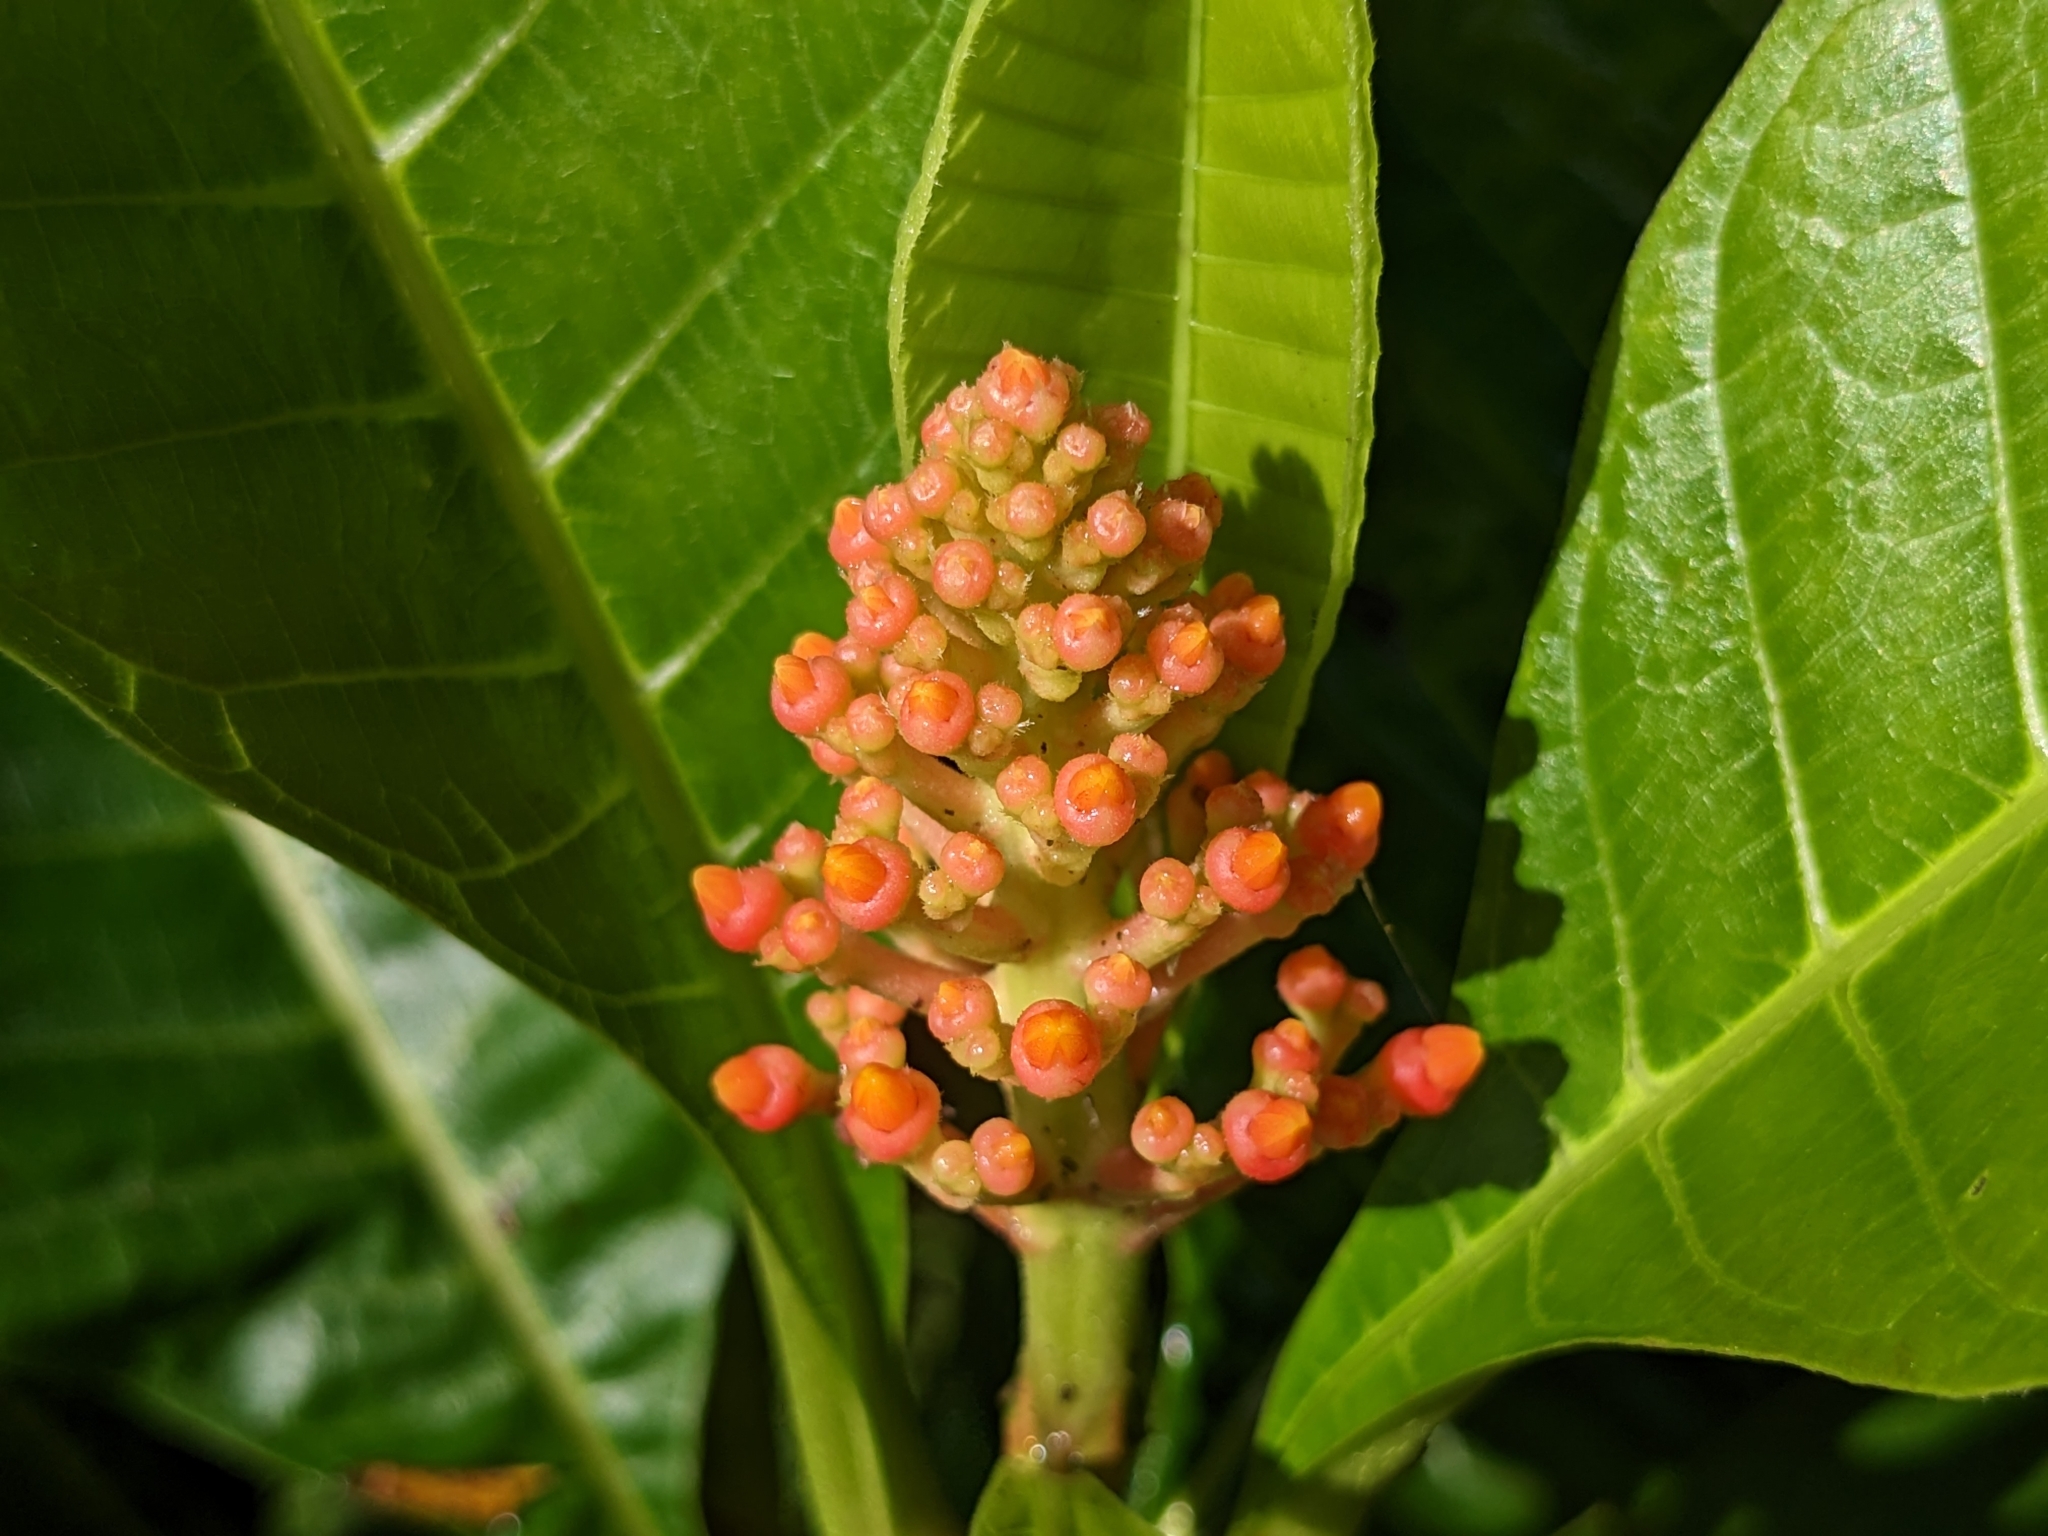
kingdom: Plantae
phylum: Tracheophyta
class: Magnoliopsida
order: Gentianales
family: Rubiaceae
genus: Isertia
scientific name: Isertia haenkeana
